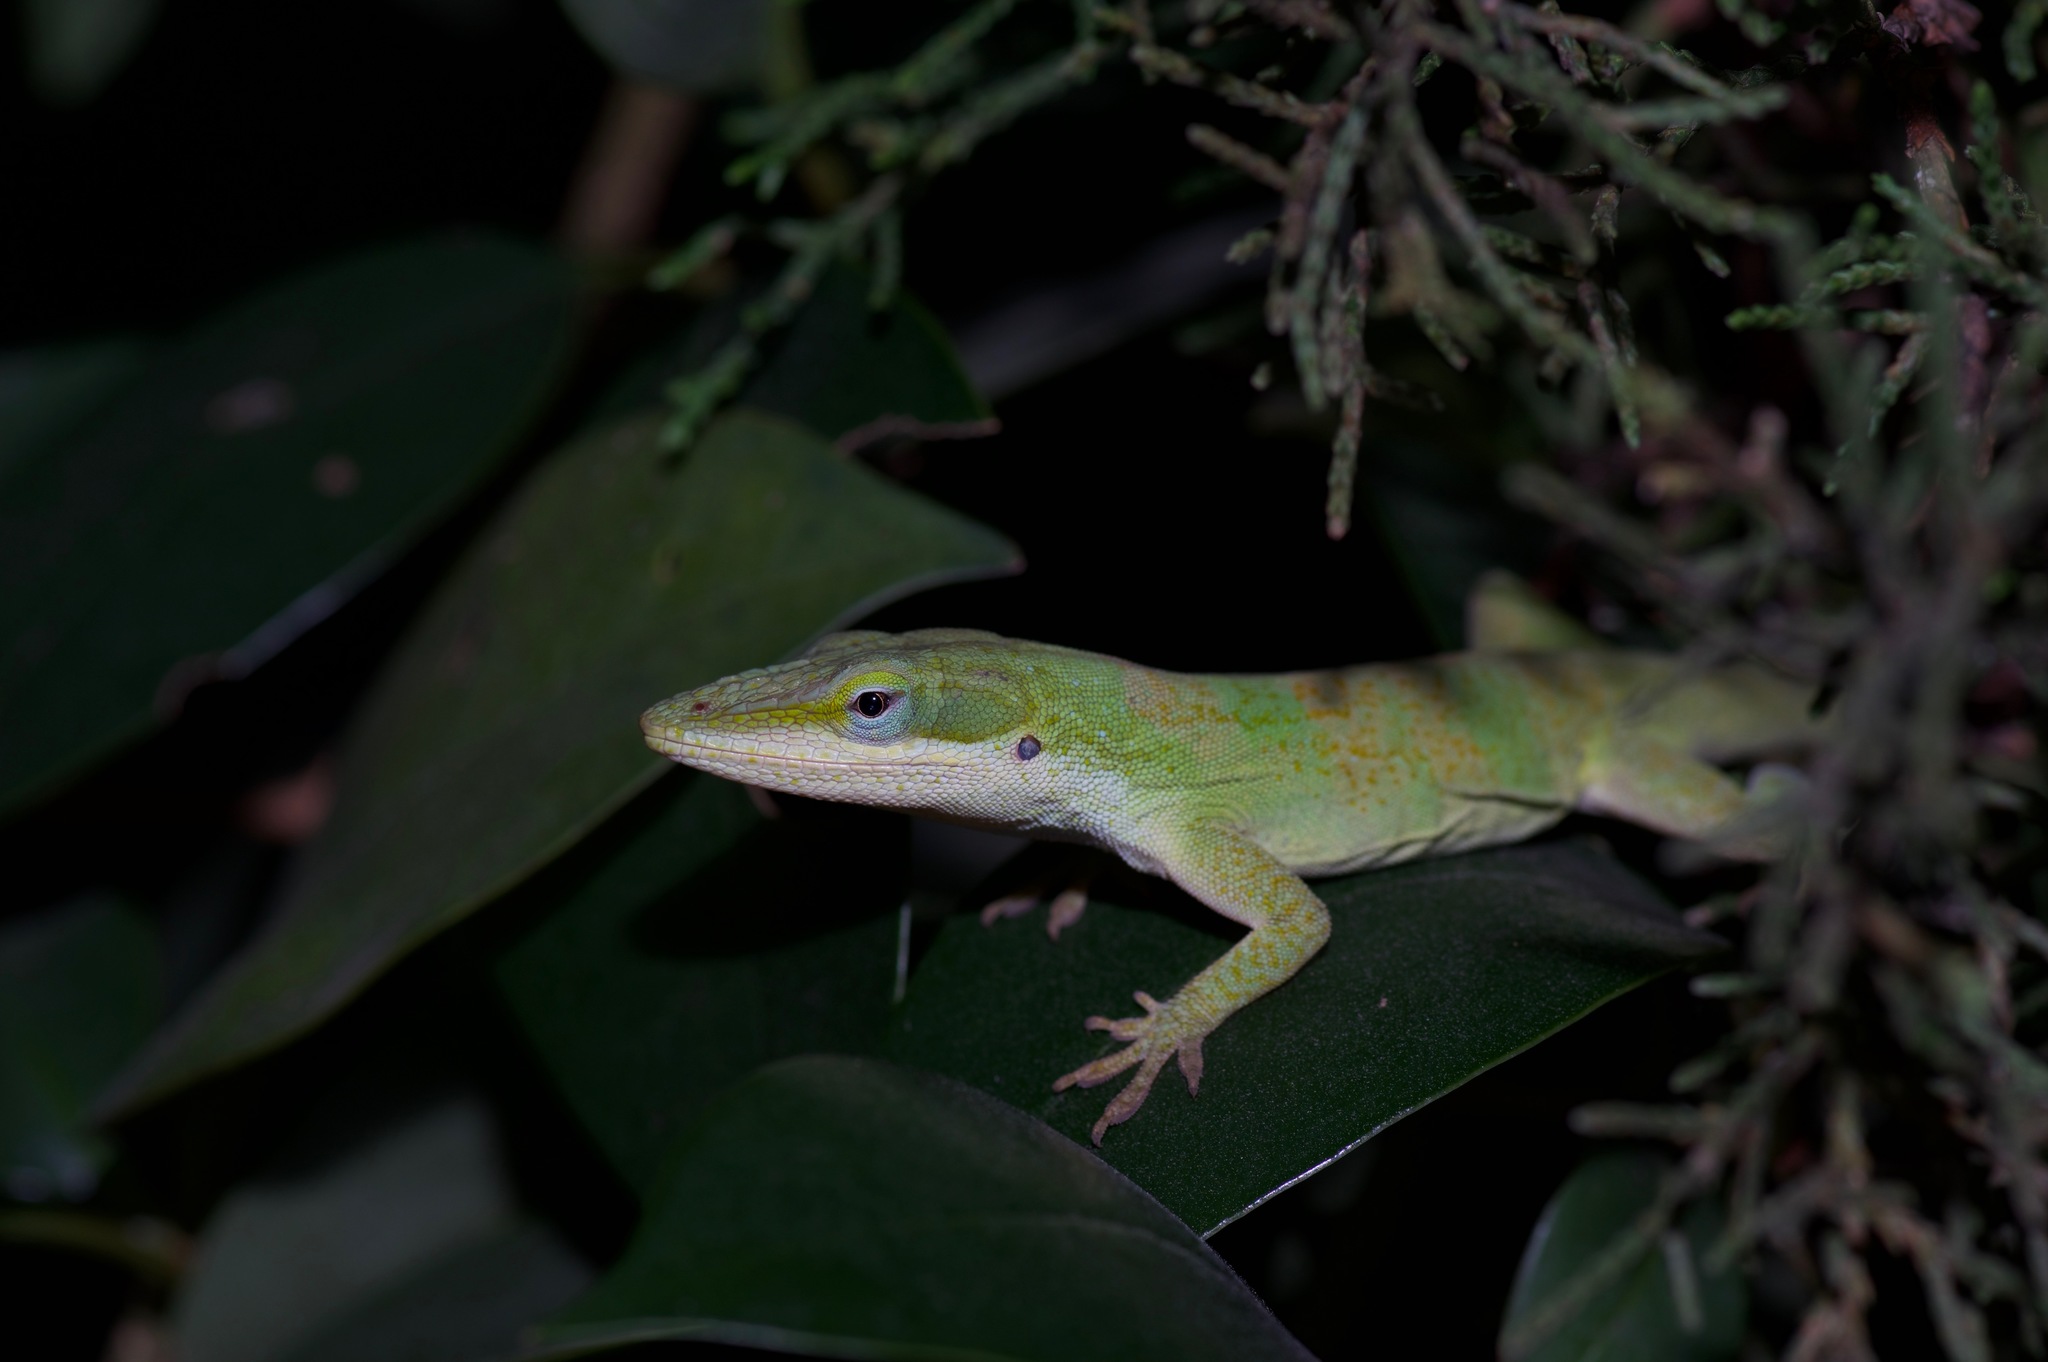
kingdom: Animalia
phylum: Chordata
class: Squamata
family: Dactyloidae
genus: Anolis
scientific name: Anolis carolinensis
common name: Green anole
